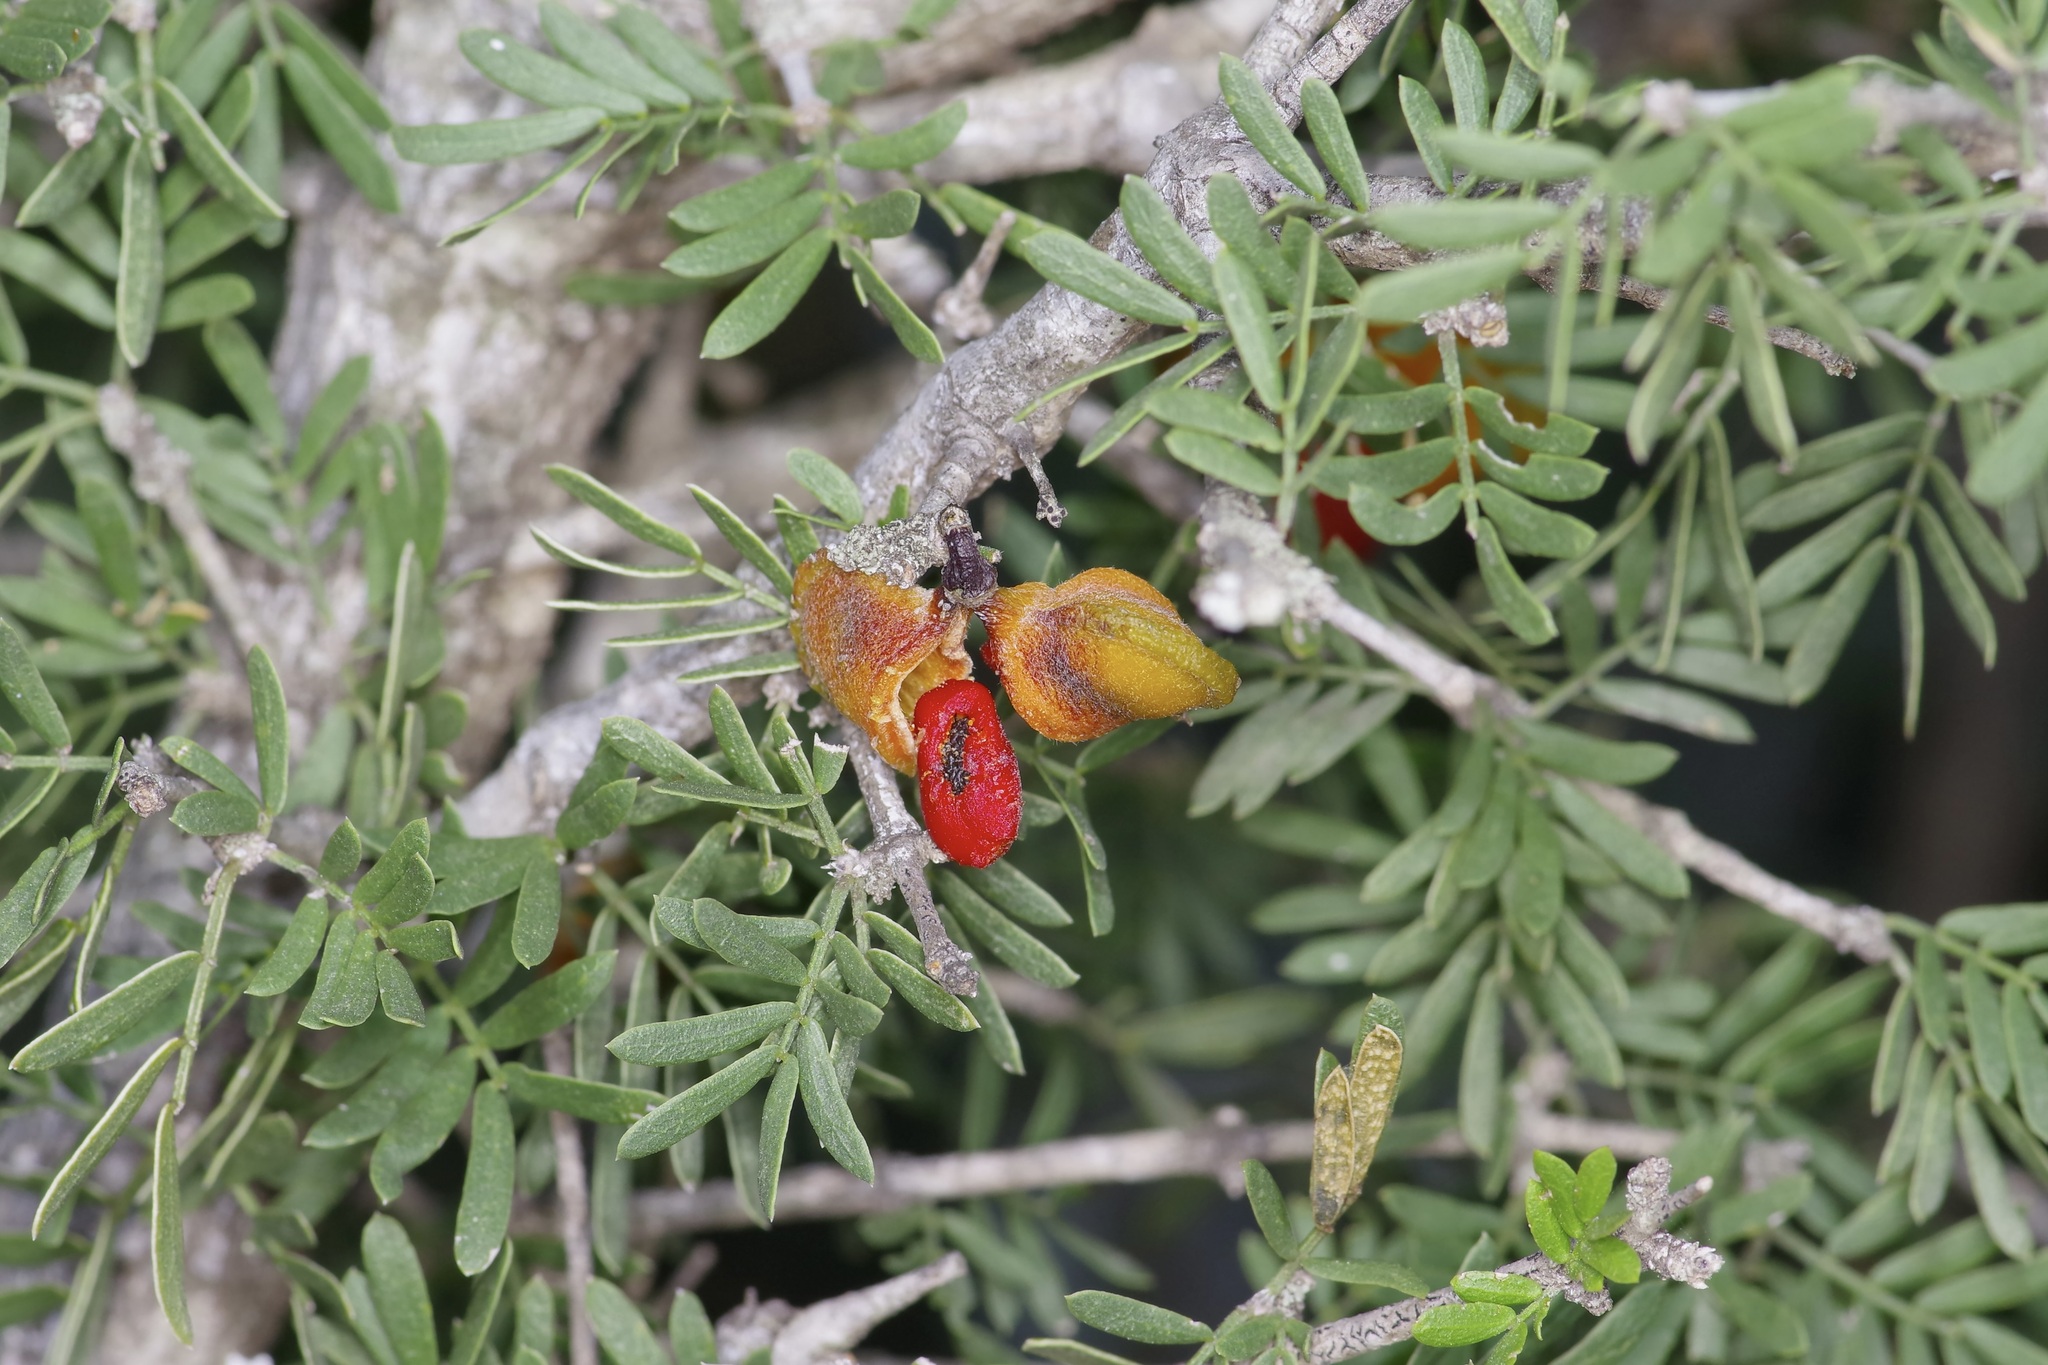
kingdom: Plantae
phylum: Tracheophyta
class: Magnoliopsida
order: Zygophyllales
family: Zygophyllaceae
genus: Porlieria
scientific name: Porlieria angustifolia
